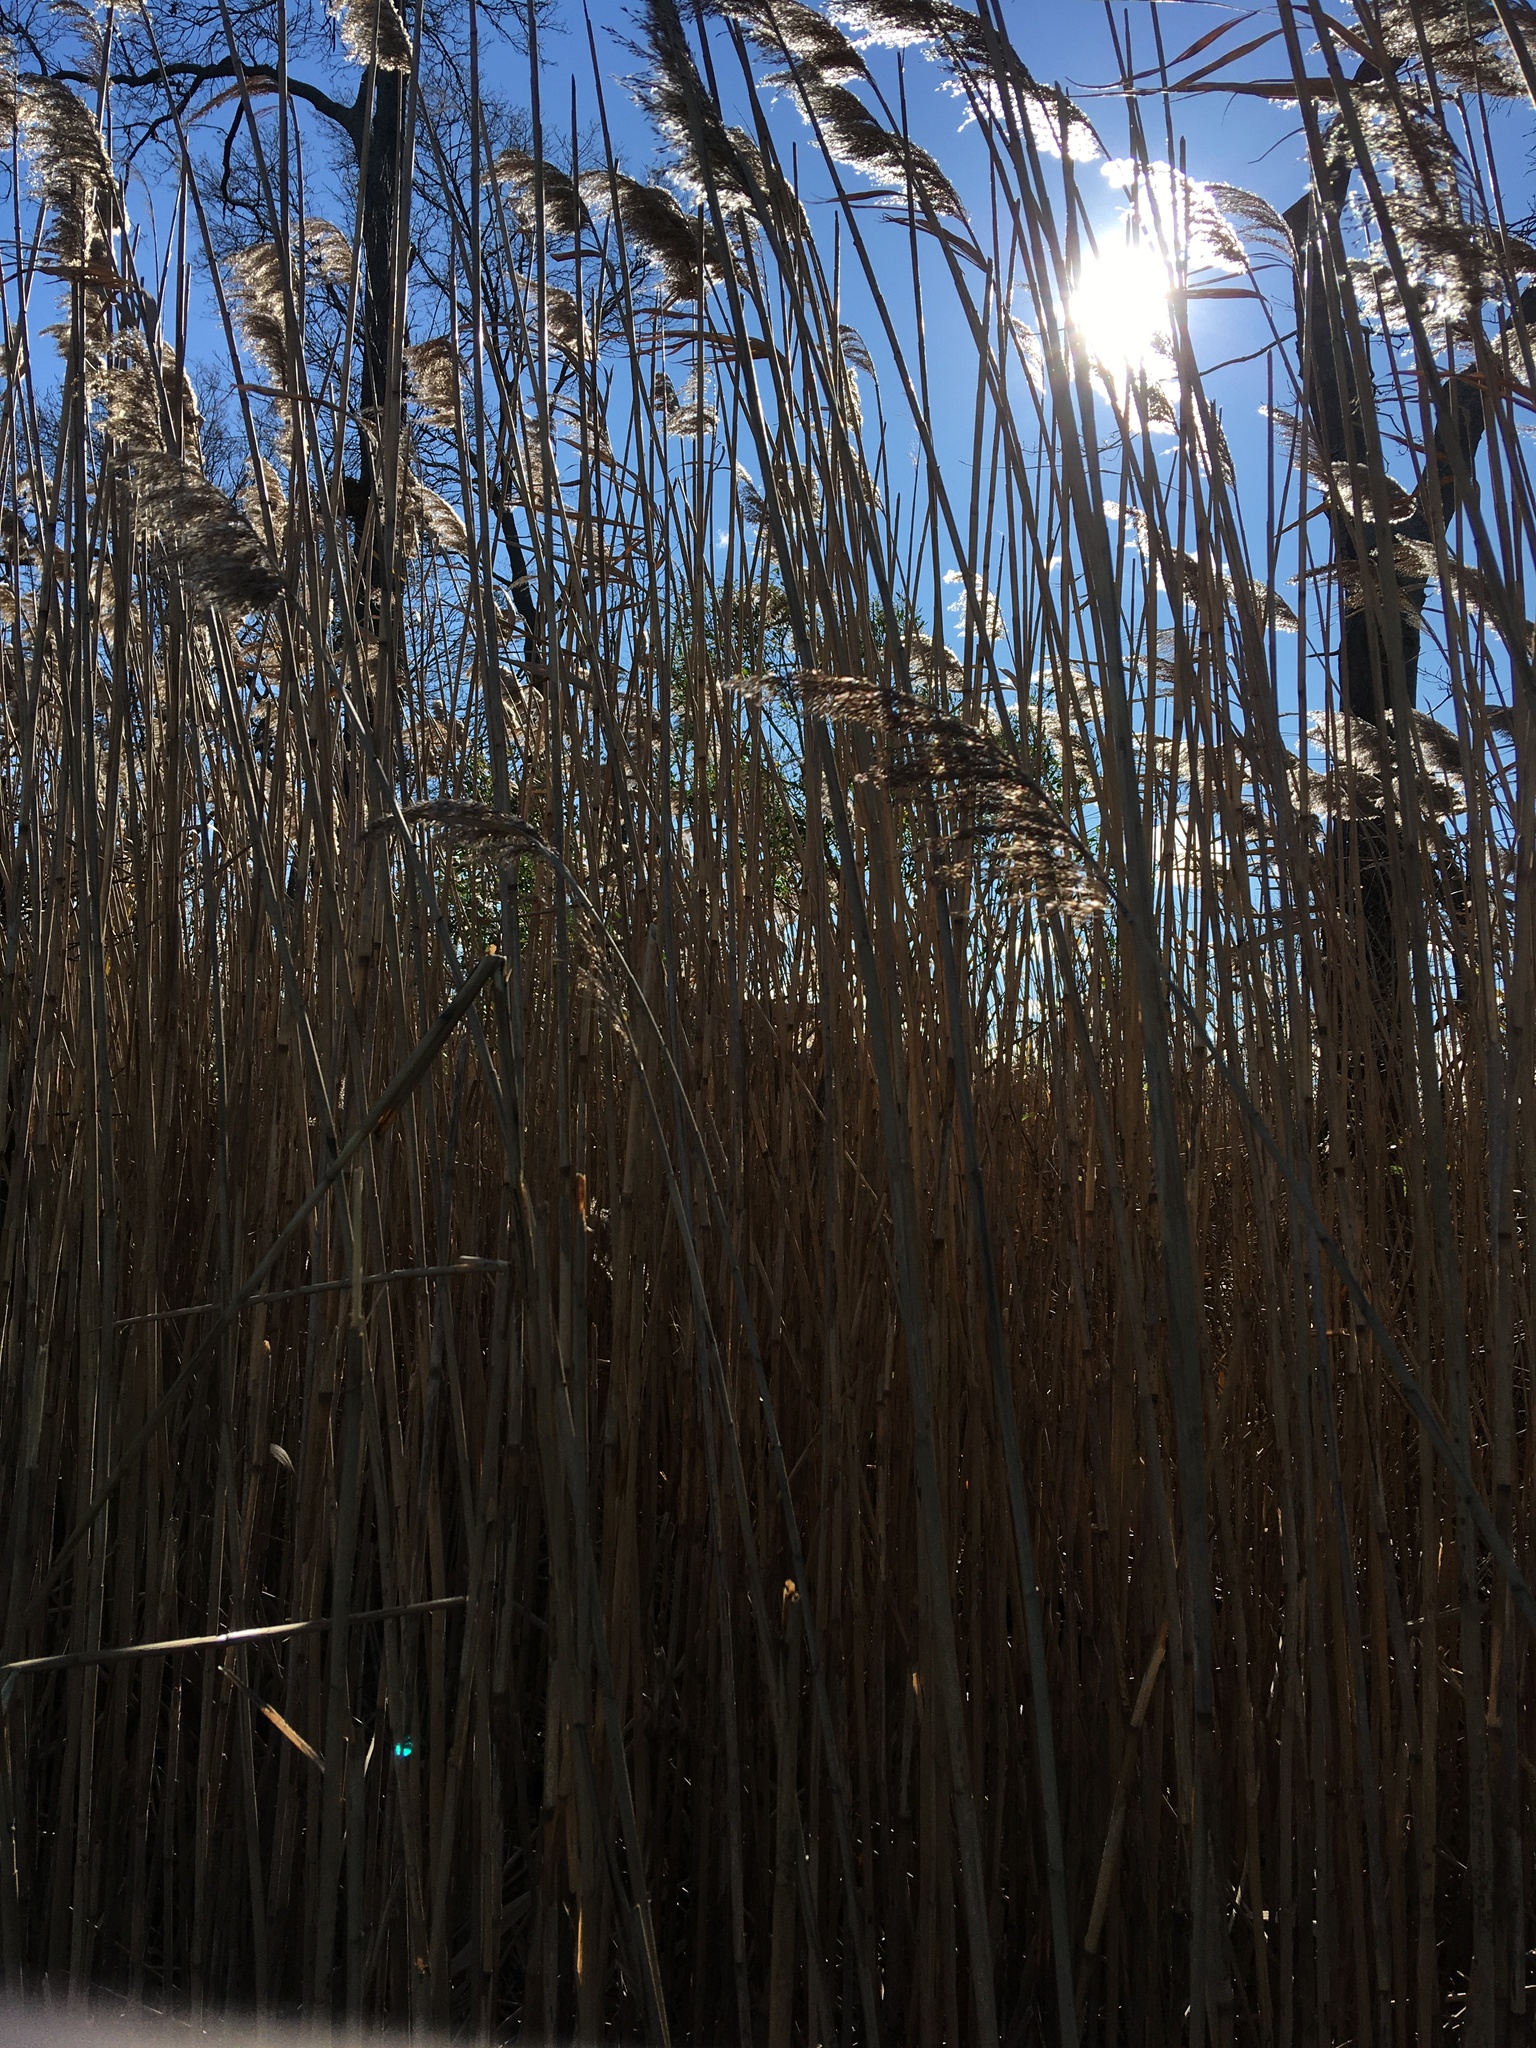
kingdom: Plantae
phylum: Tracheophyta
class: Liliopsida
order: Poales
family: Poaceae
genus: Phragmites
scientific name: Phragmites australis
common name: Common reed
